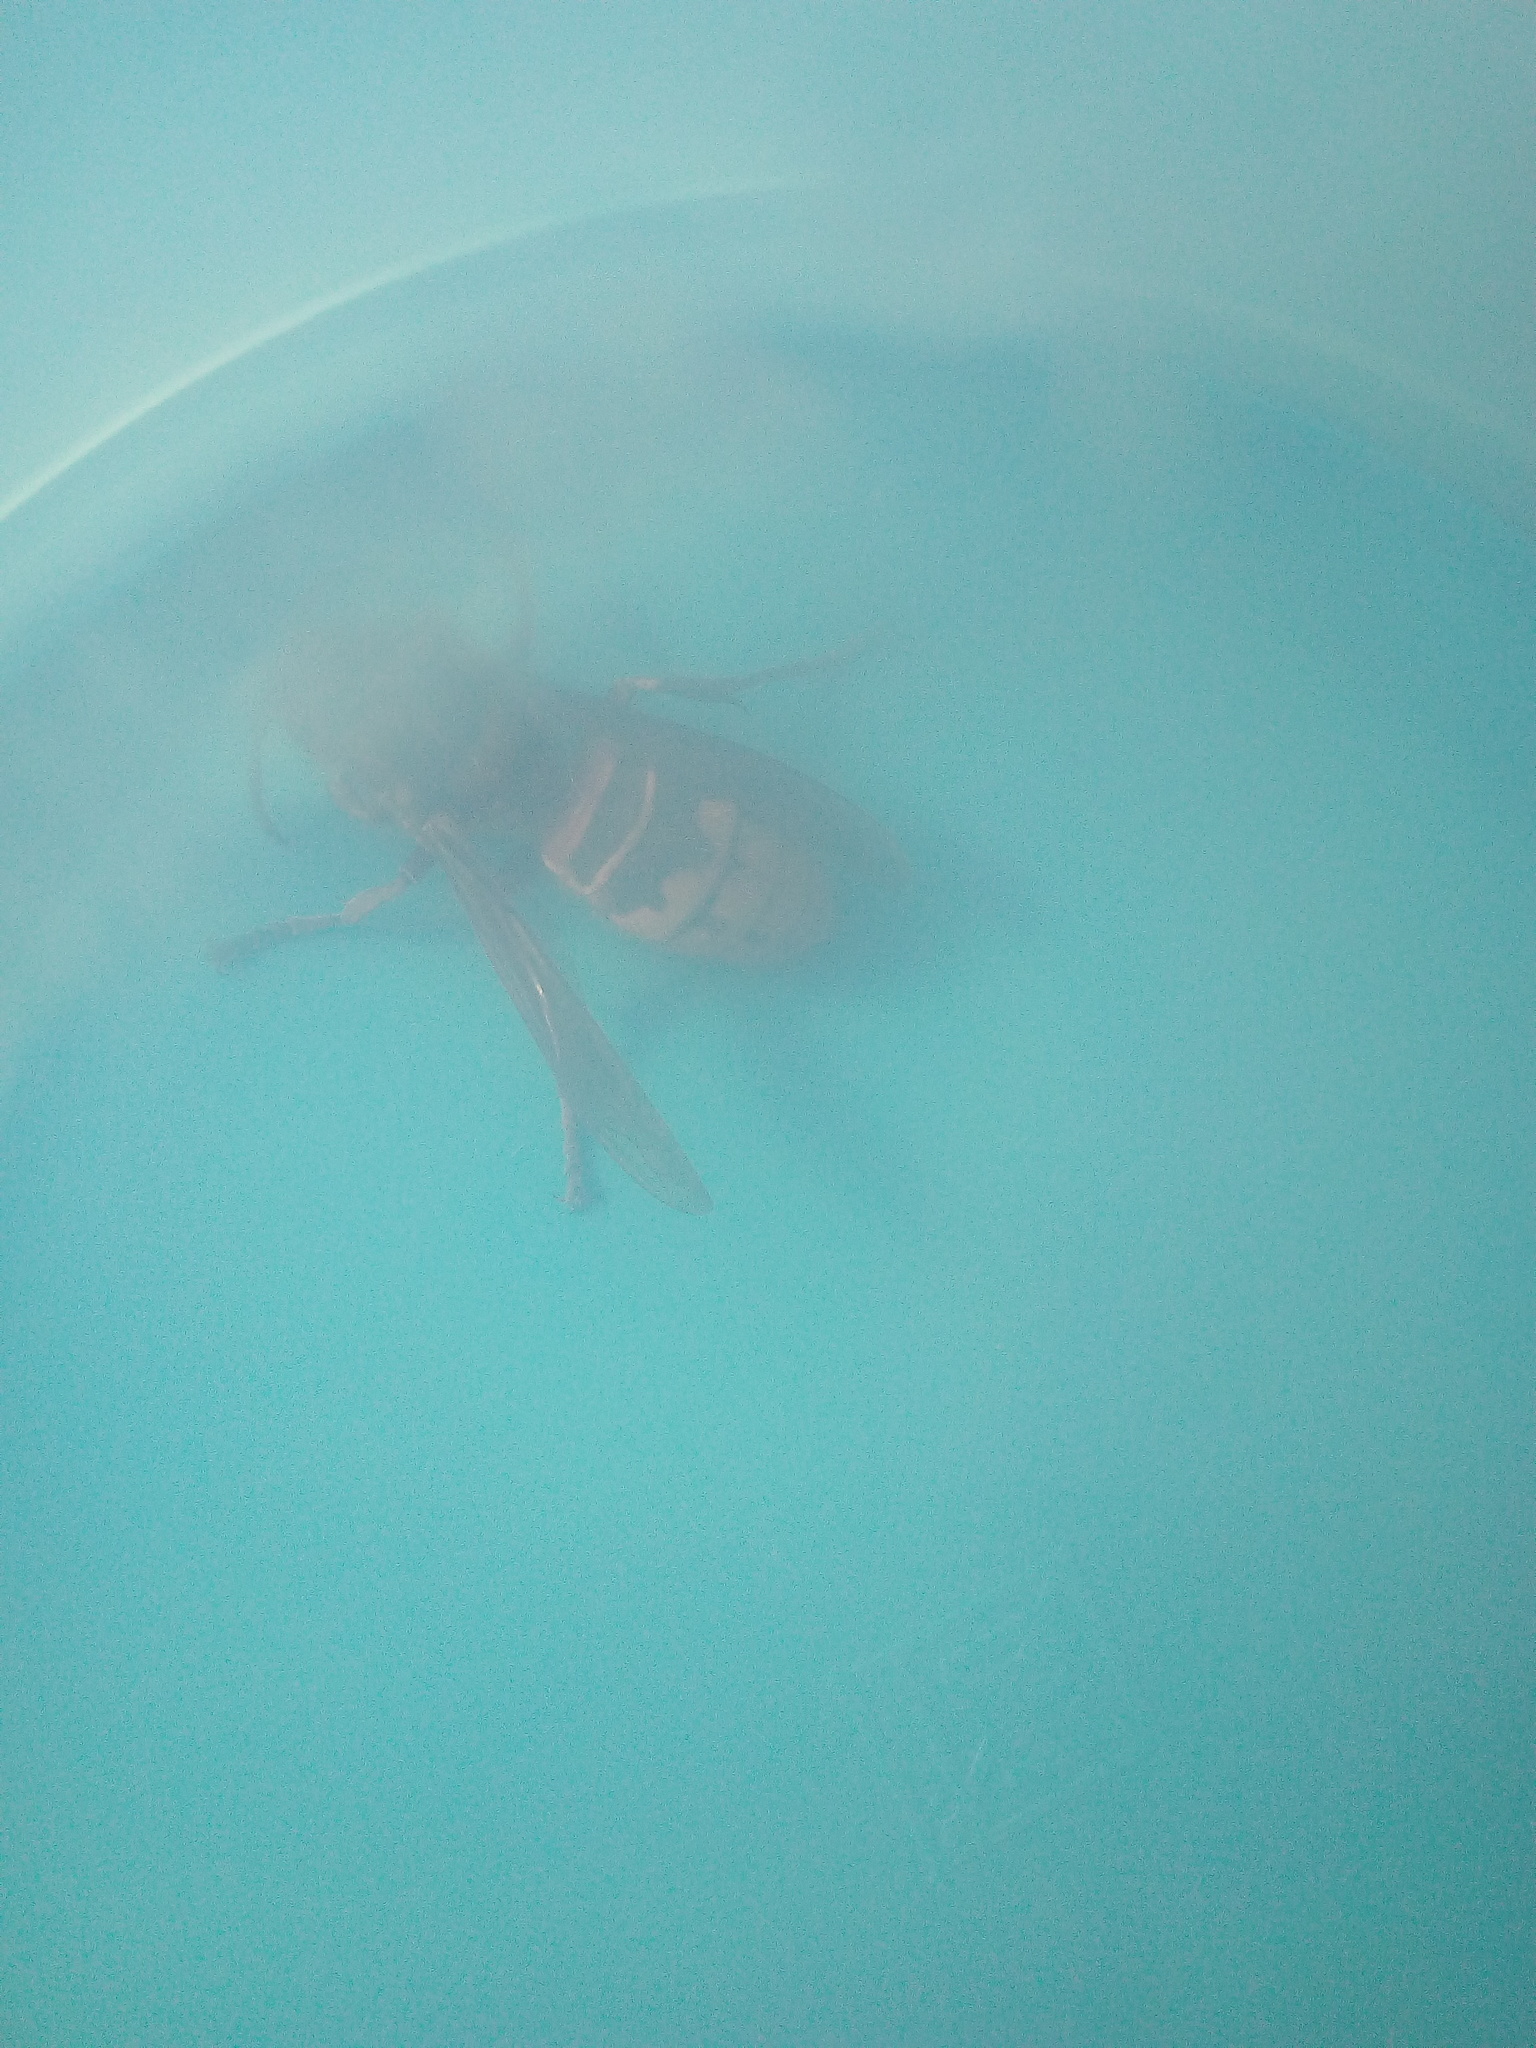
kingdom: Animalia
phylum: Arthropoda
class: Insecta
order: Hymenoptera
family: Vespidae
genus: Vespa
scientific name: Vespa crabro
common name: Hornet
